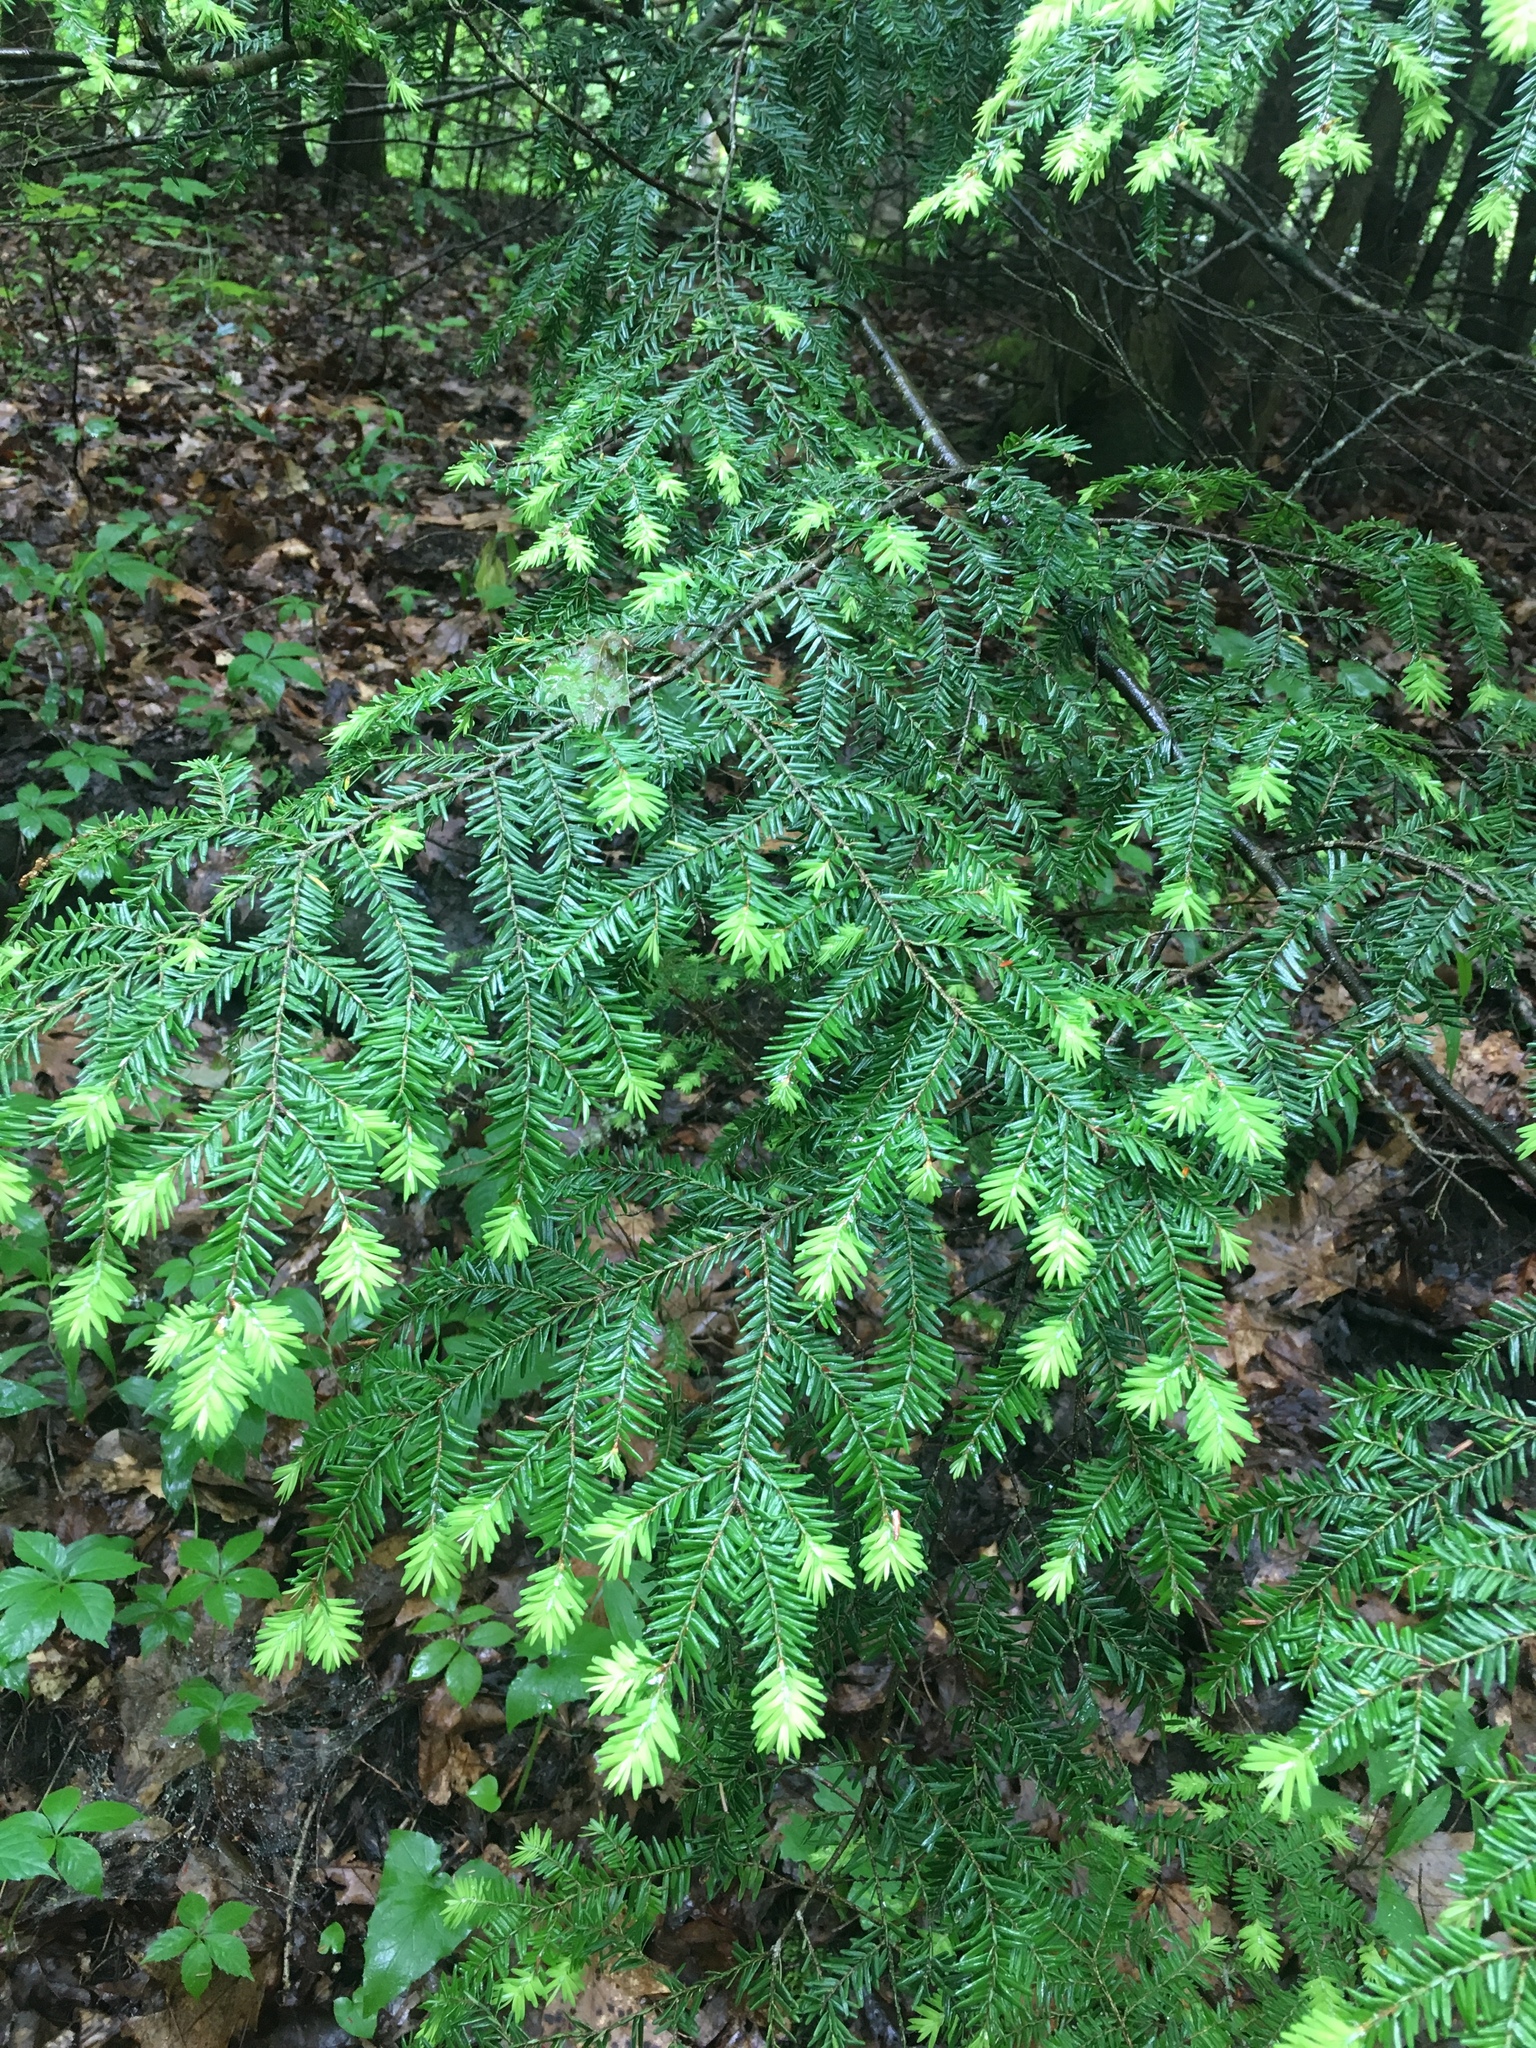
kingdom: Plantae
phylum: Tracheophyta
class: Pinopsida
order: Pinales
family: Pinaceae
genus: Tsuga
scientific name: Tsuga canadensis
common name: Eastern hemlock
